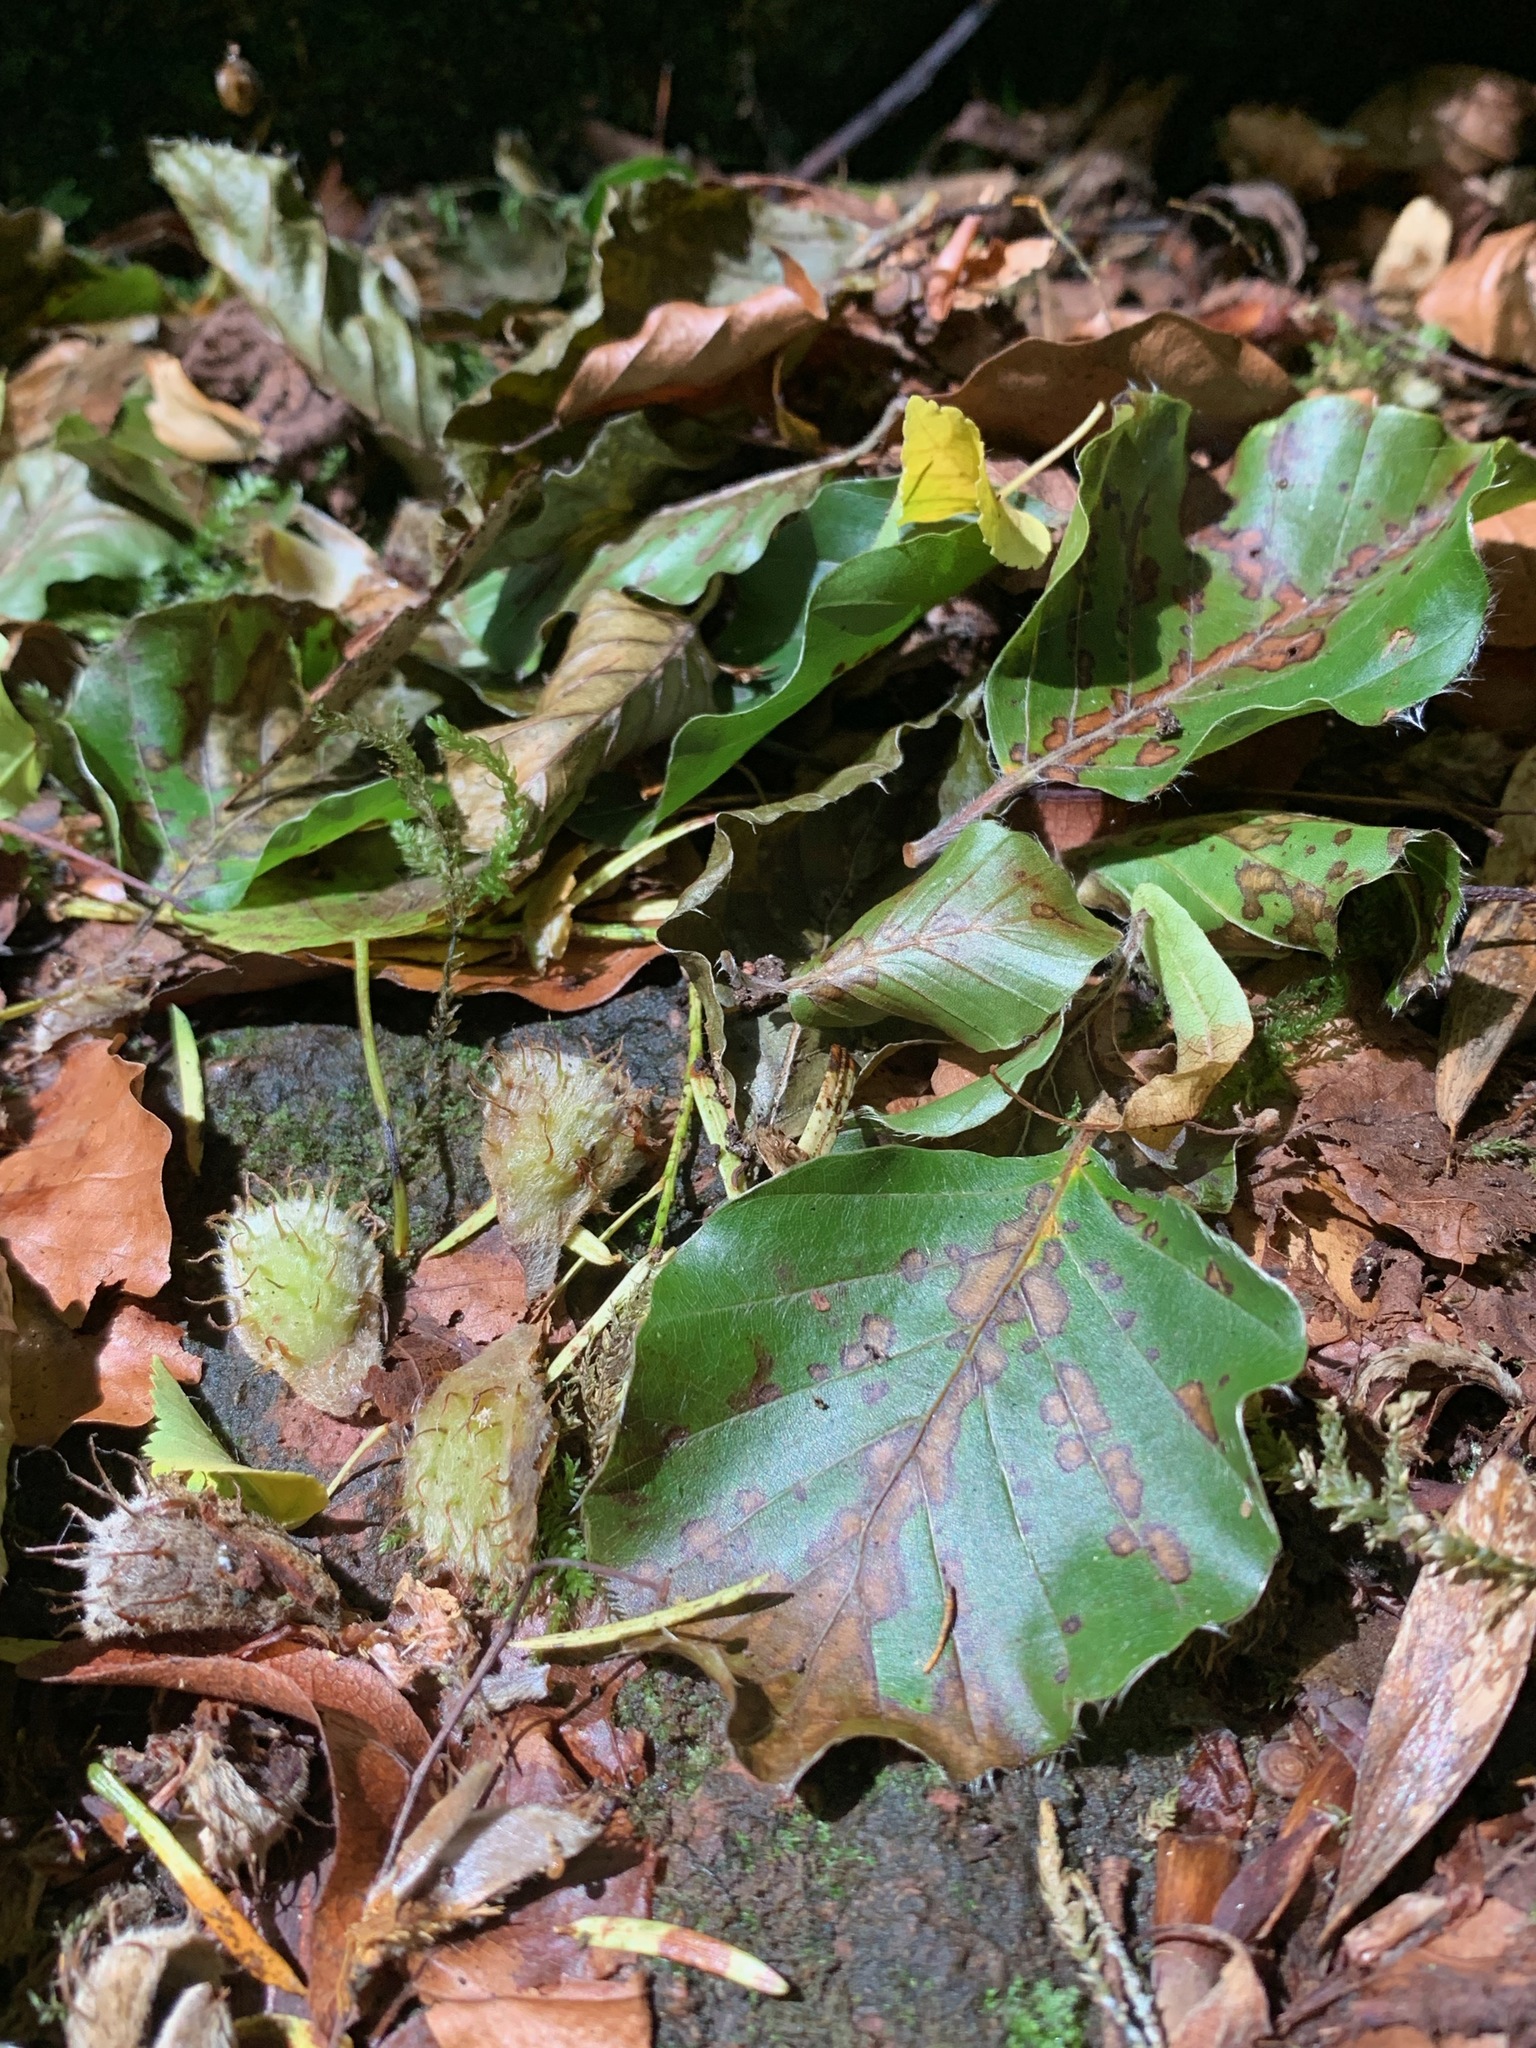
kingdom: Plantae
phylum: Tracheophyta
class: Magnoliopsida
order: Fagales
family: Fagaceae
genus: Fagus
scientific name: Fagus sylvatica
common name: Beech
